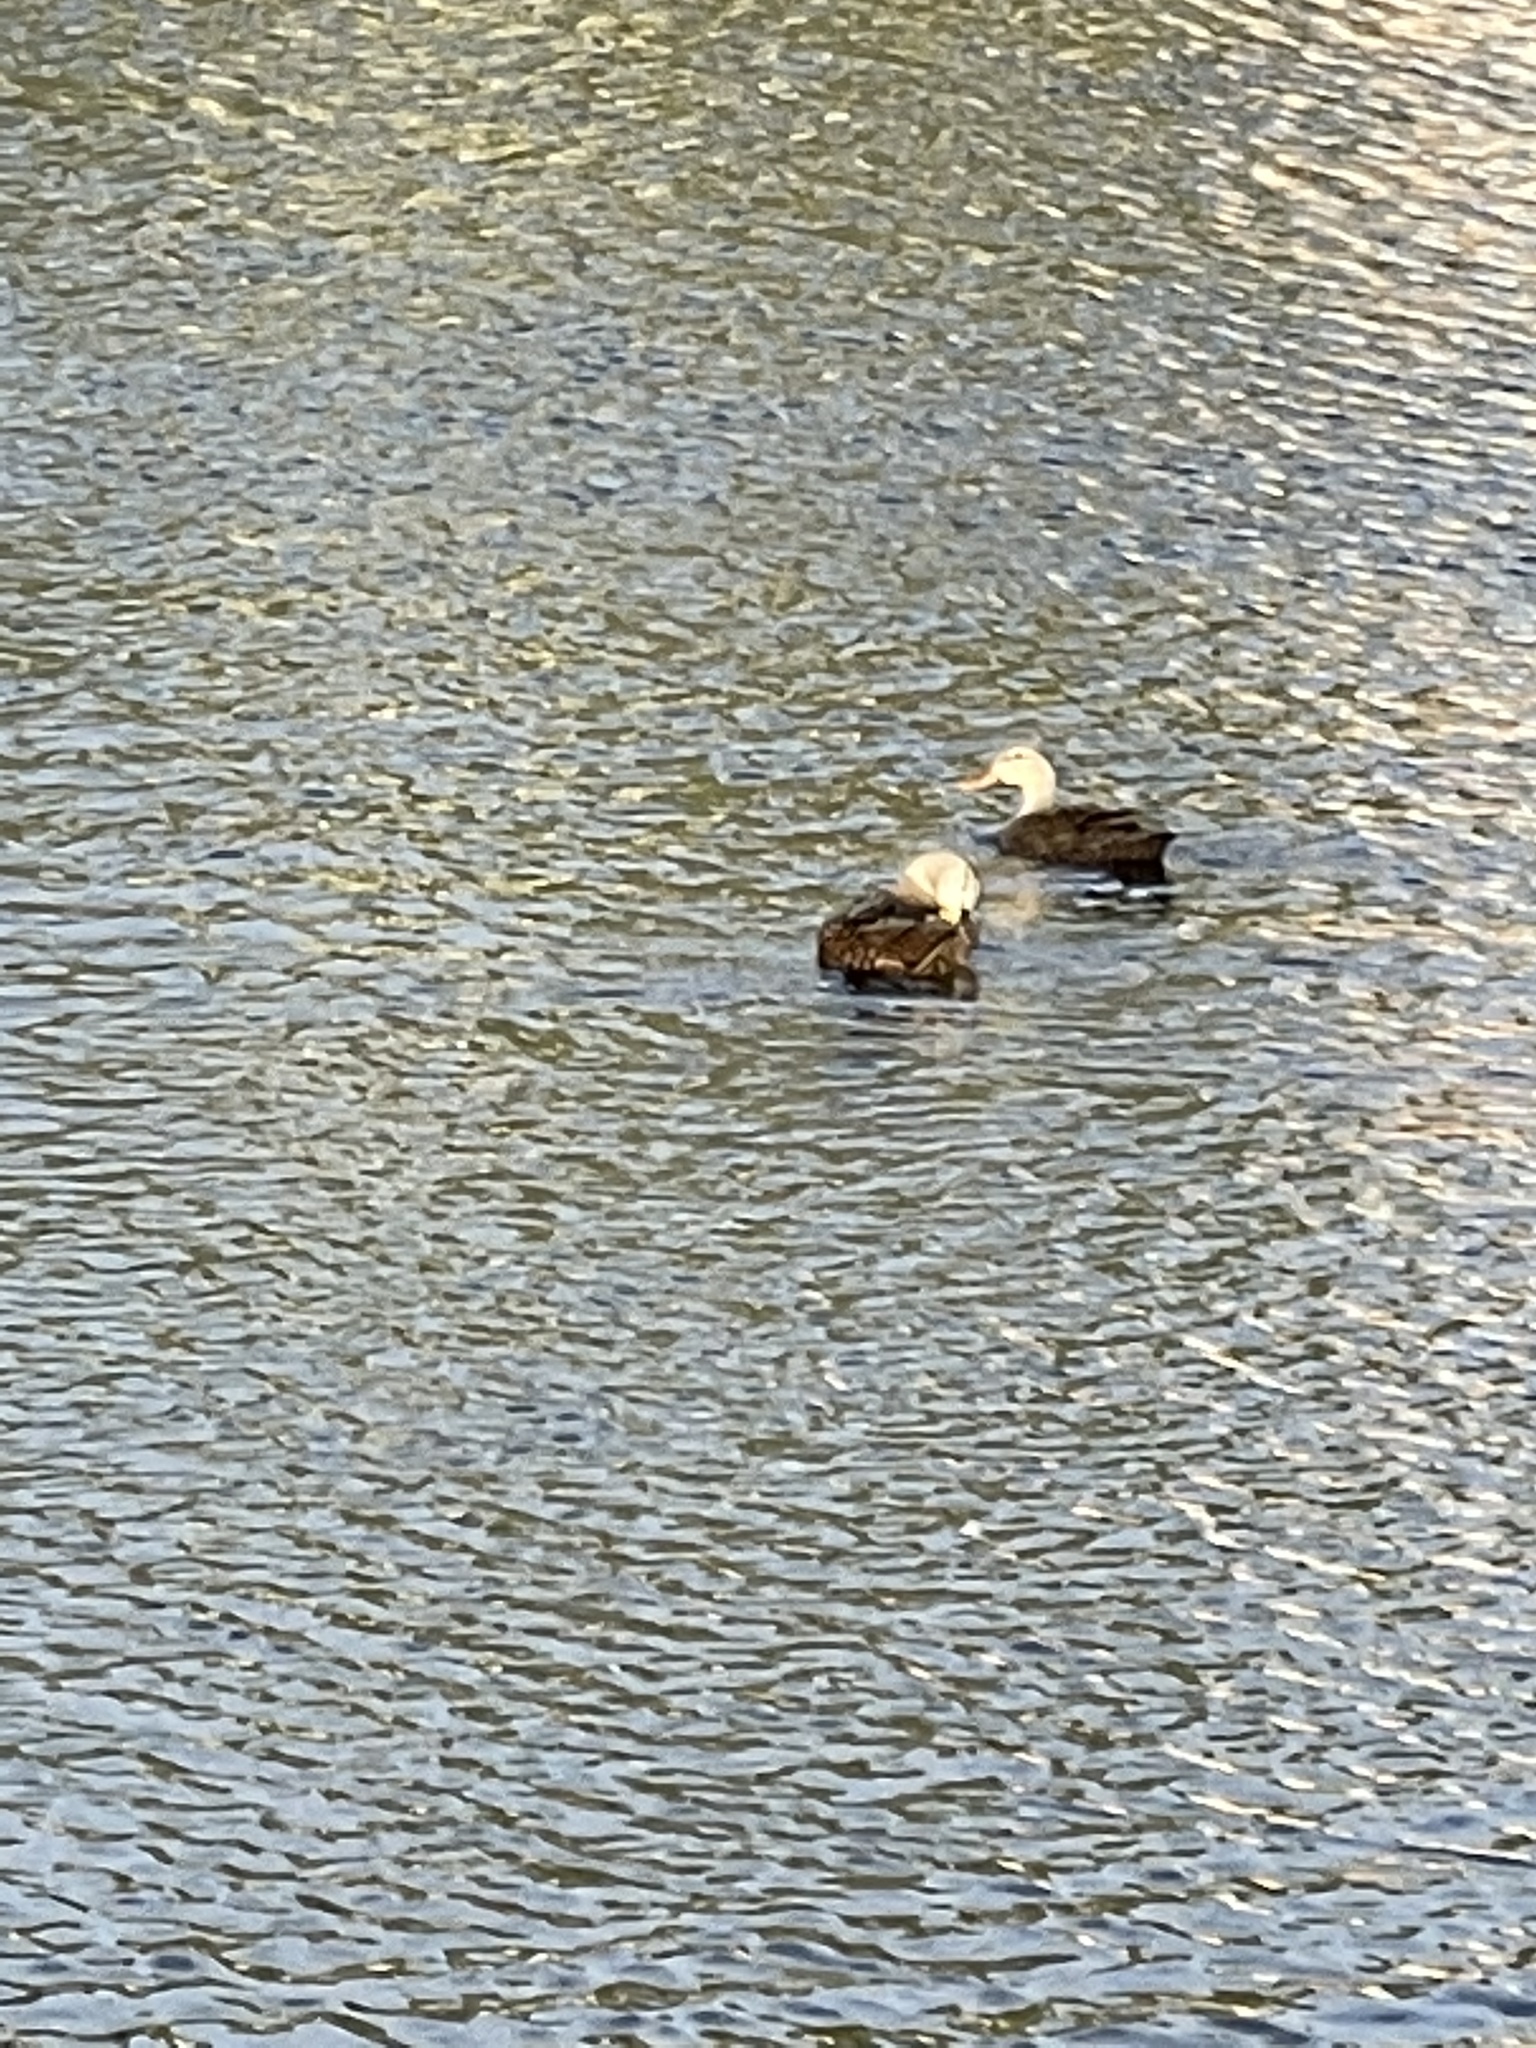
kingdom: Animalia
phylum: Chordata
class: Aves
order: Anseriformes
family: Anatidae
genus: Anas
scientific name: Anas
